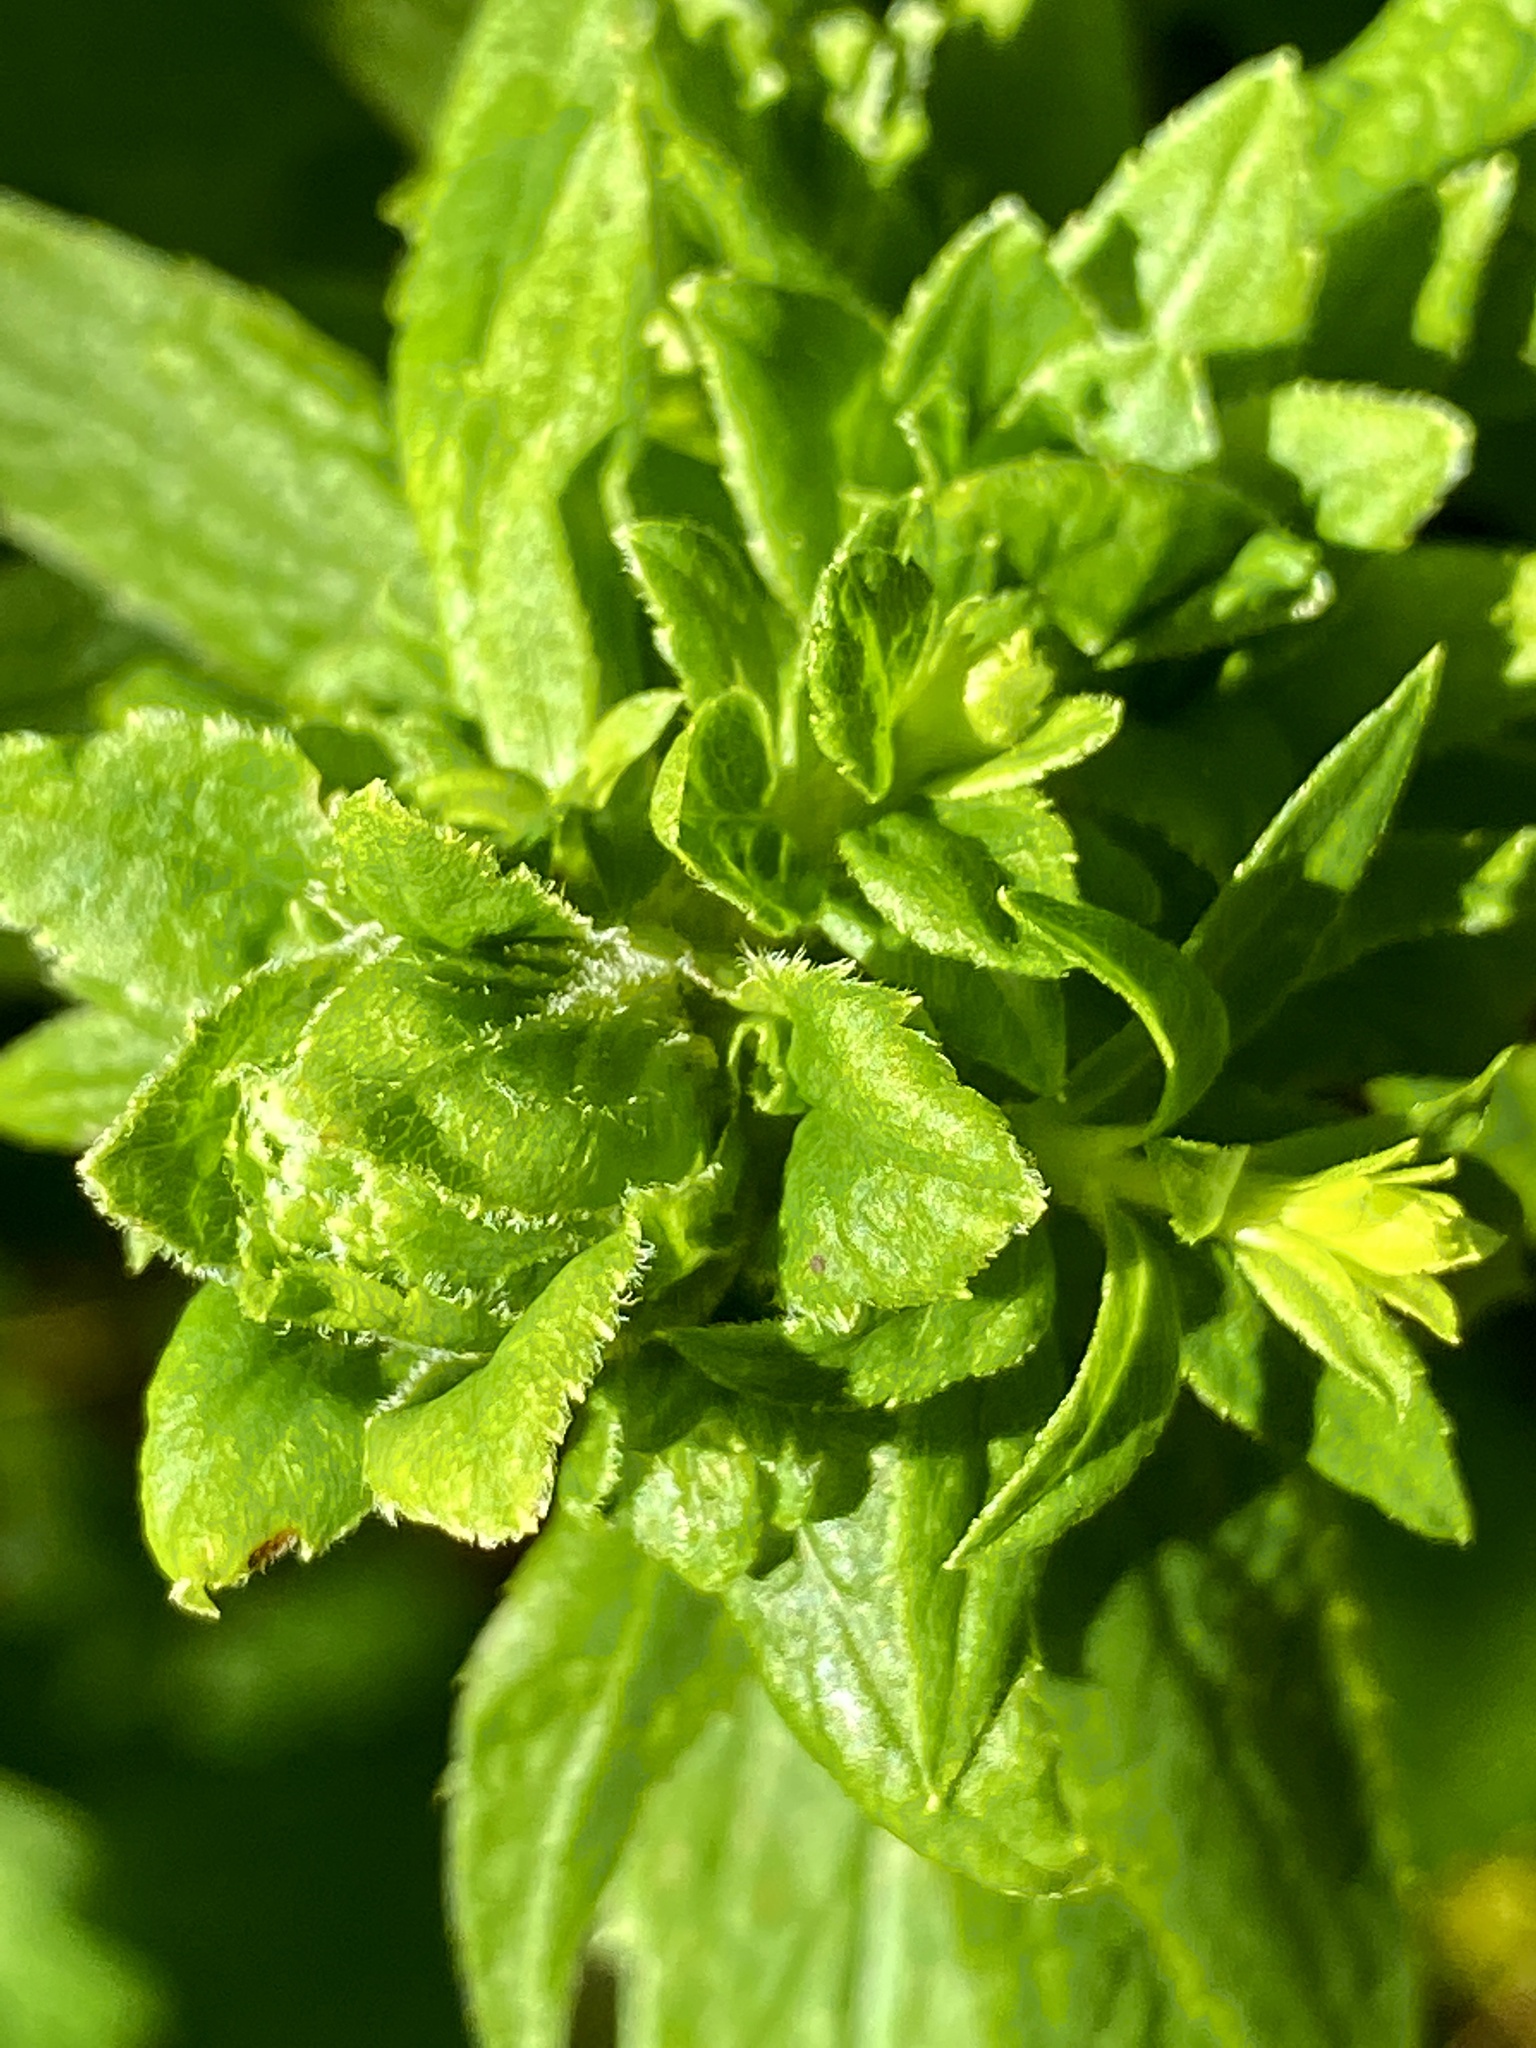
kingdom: Animalia
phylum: Arthropoda
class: Insecta
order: Diptera
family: Tephritidae
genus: Procecidochares
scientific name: Procecidochares atra
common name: Goldenrod brussels sprout gall fly
